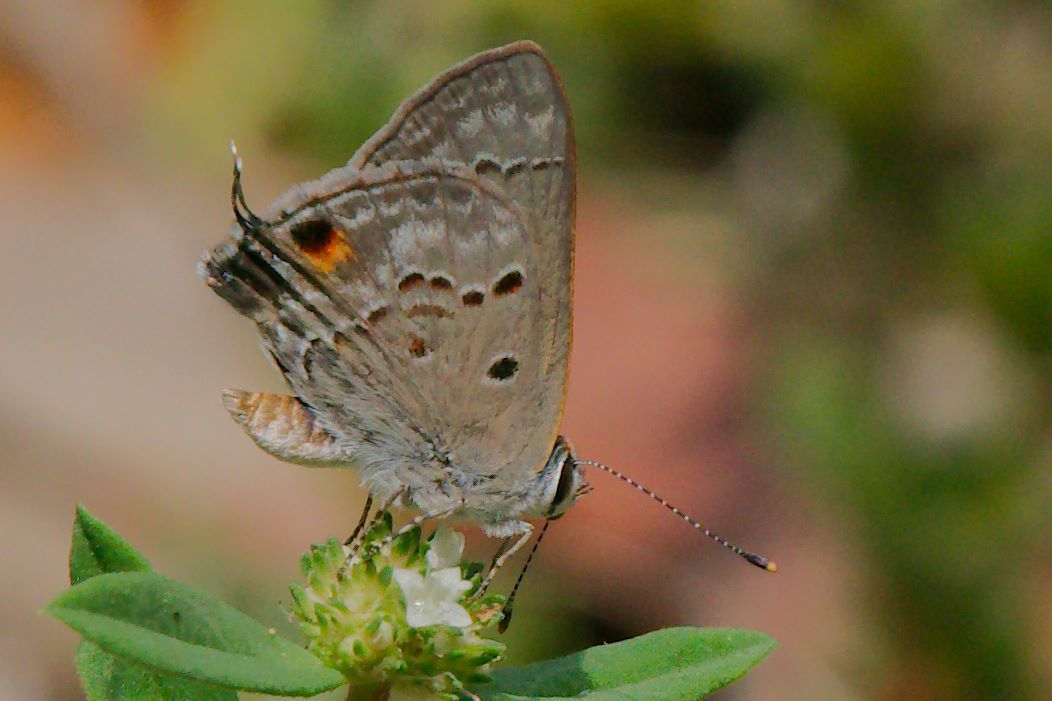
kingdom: Animalia
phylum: Arthropoda
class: Insecta
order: Lepidoptera
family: Lycaenidae
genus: Callicista
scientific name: Callicista columella
